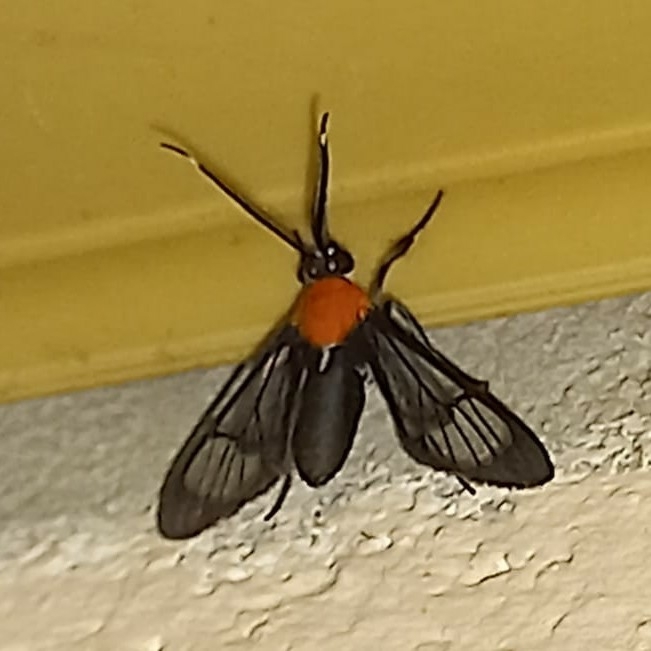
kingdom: Animalia
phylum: Arthropoda
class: Insecta
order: Lepidoptera
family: Erebidae
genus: Valvaminor
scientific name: Valvaminor davisi
